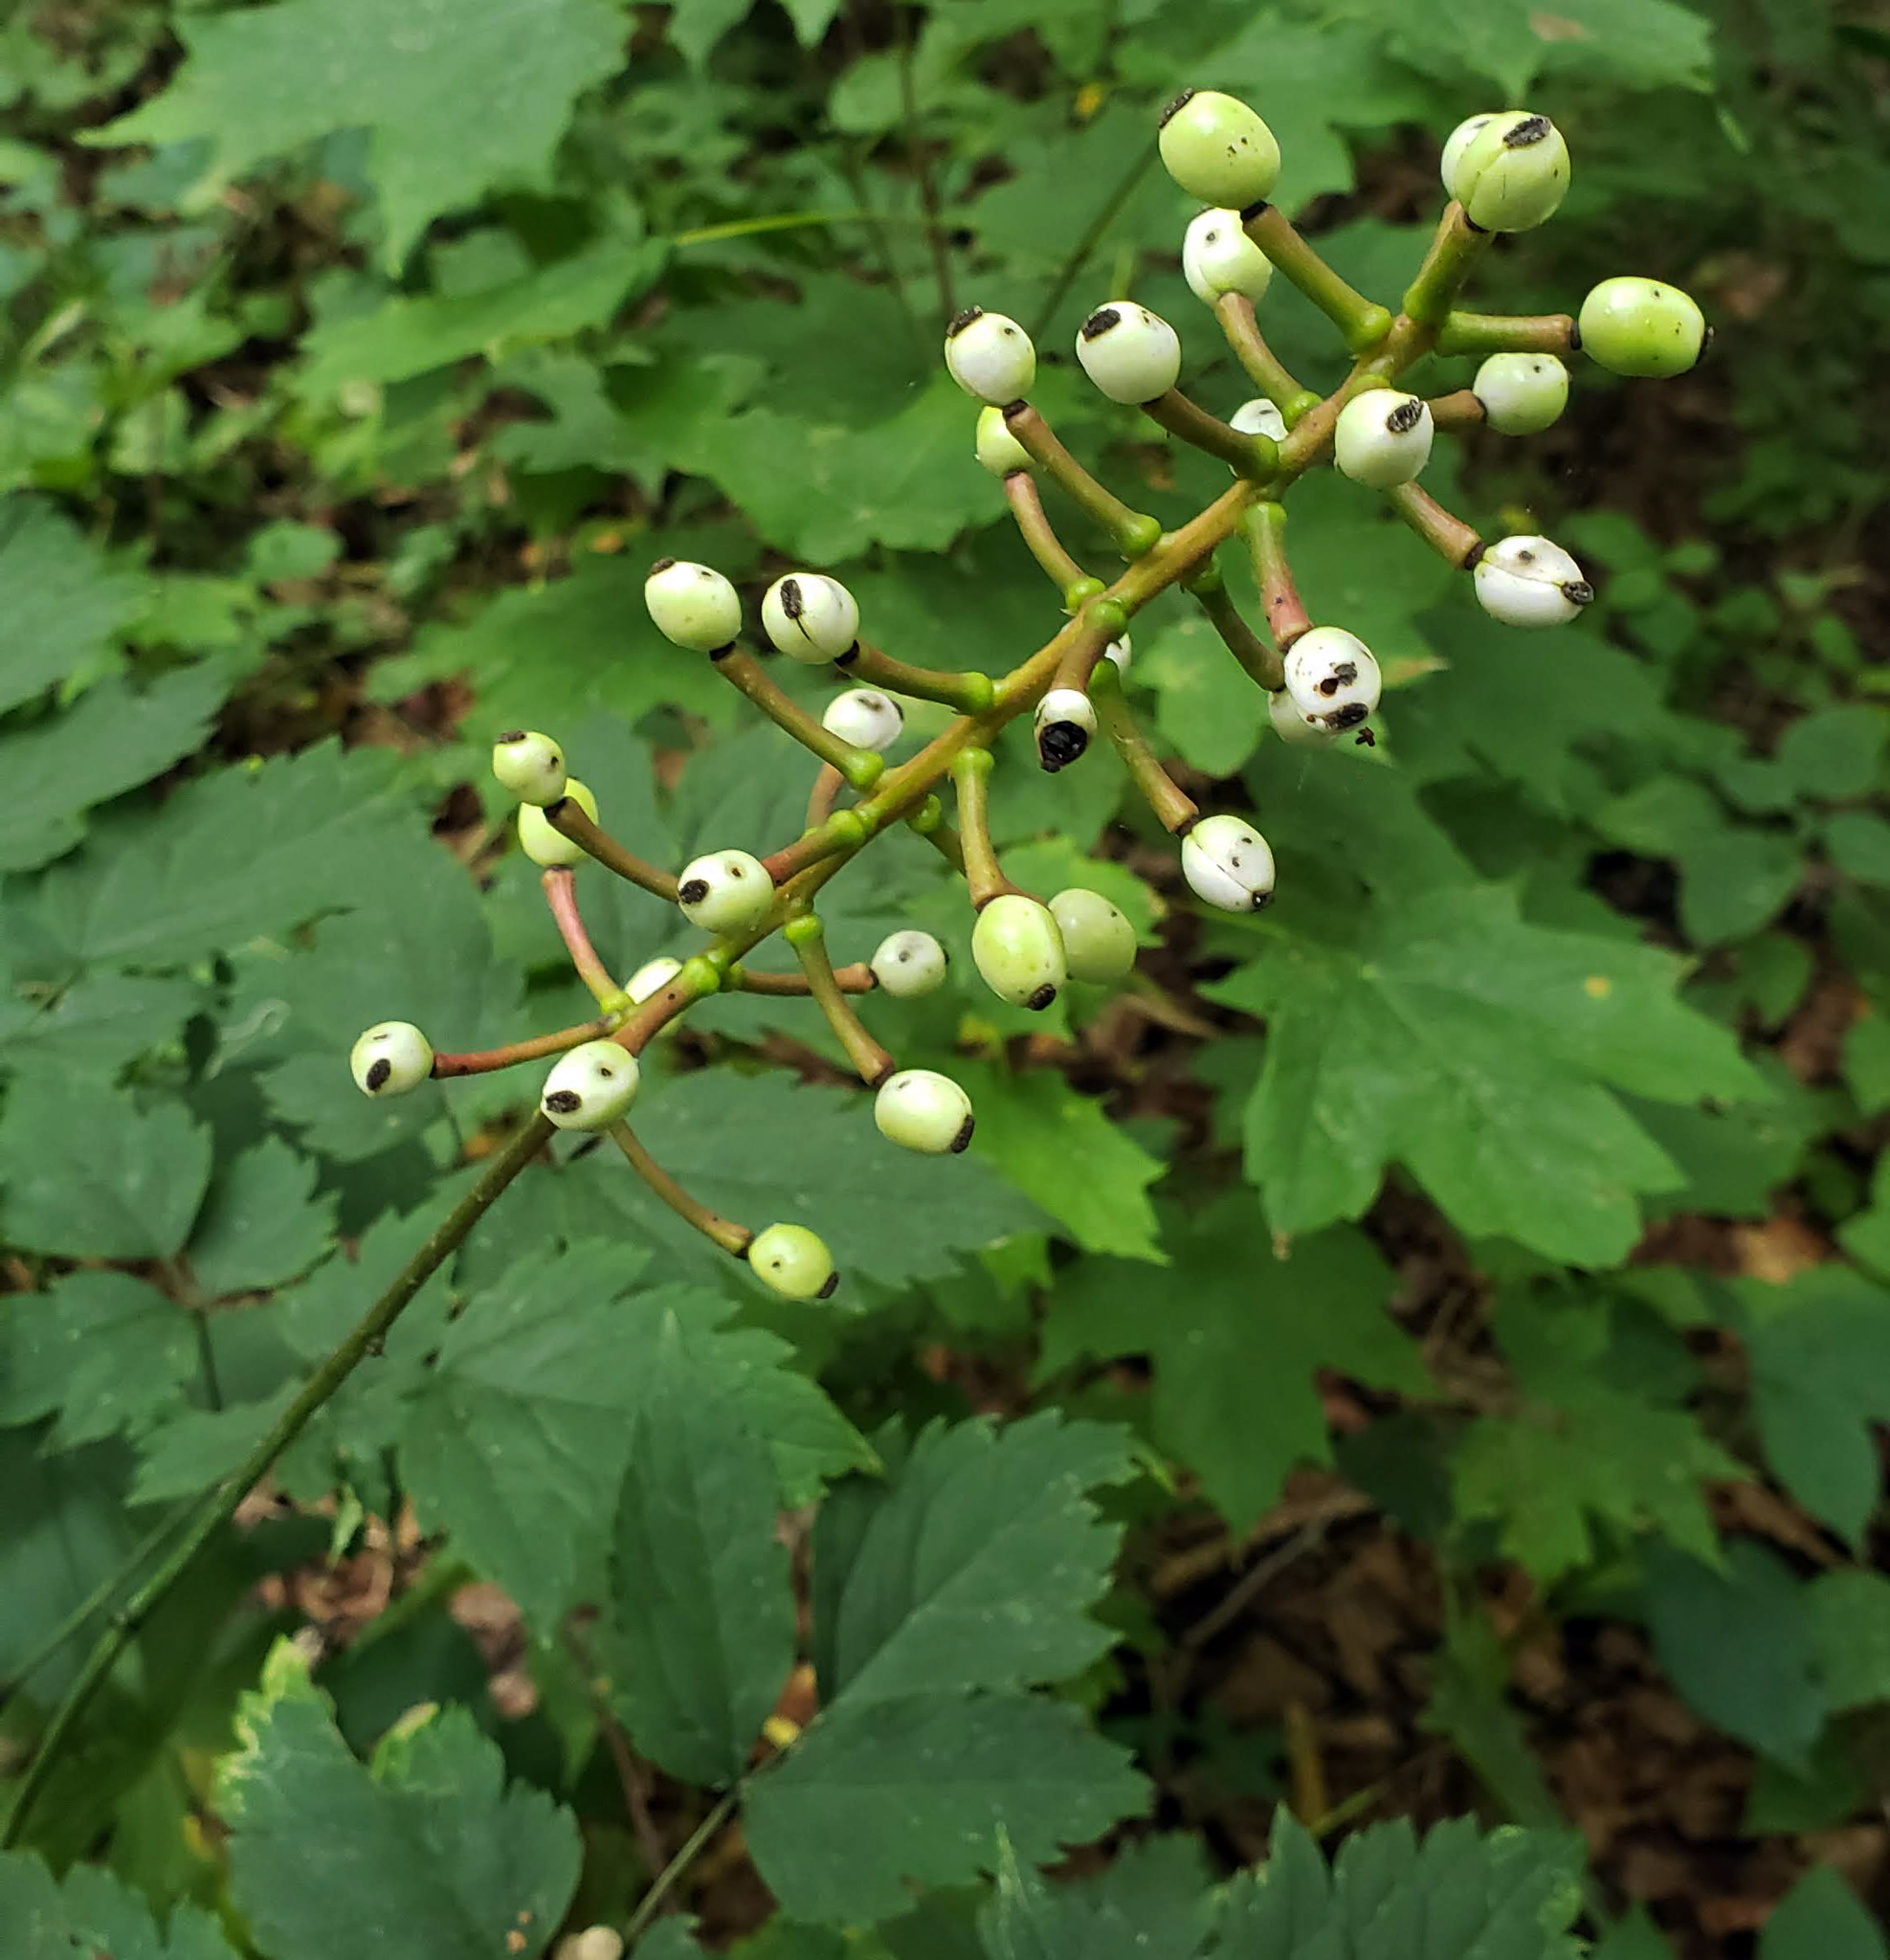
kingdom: Plantae
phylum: Tracheophyta
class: Magnoliopsida
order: Ranunculales
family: Ranunculaceae
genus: Actaea
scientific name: Actaea pachypoda
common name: Doll's-eyes
